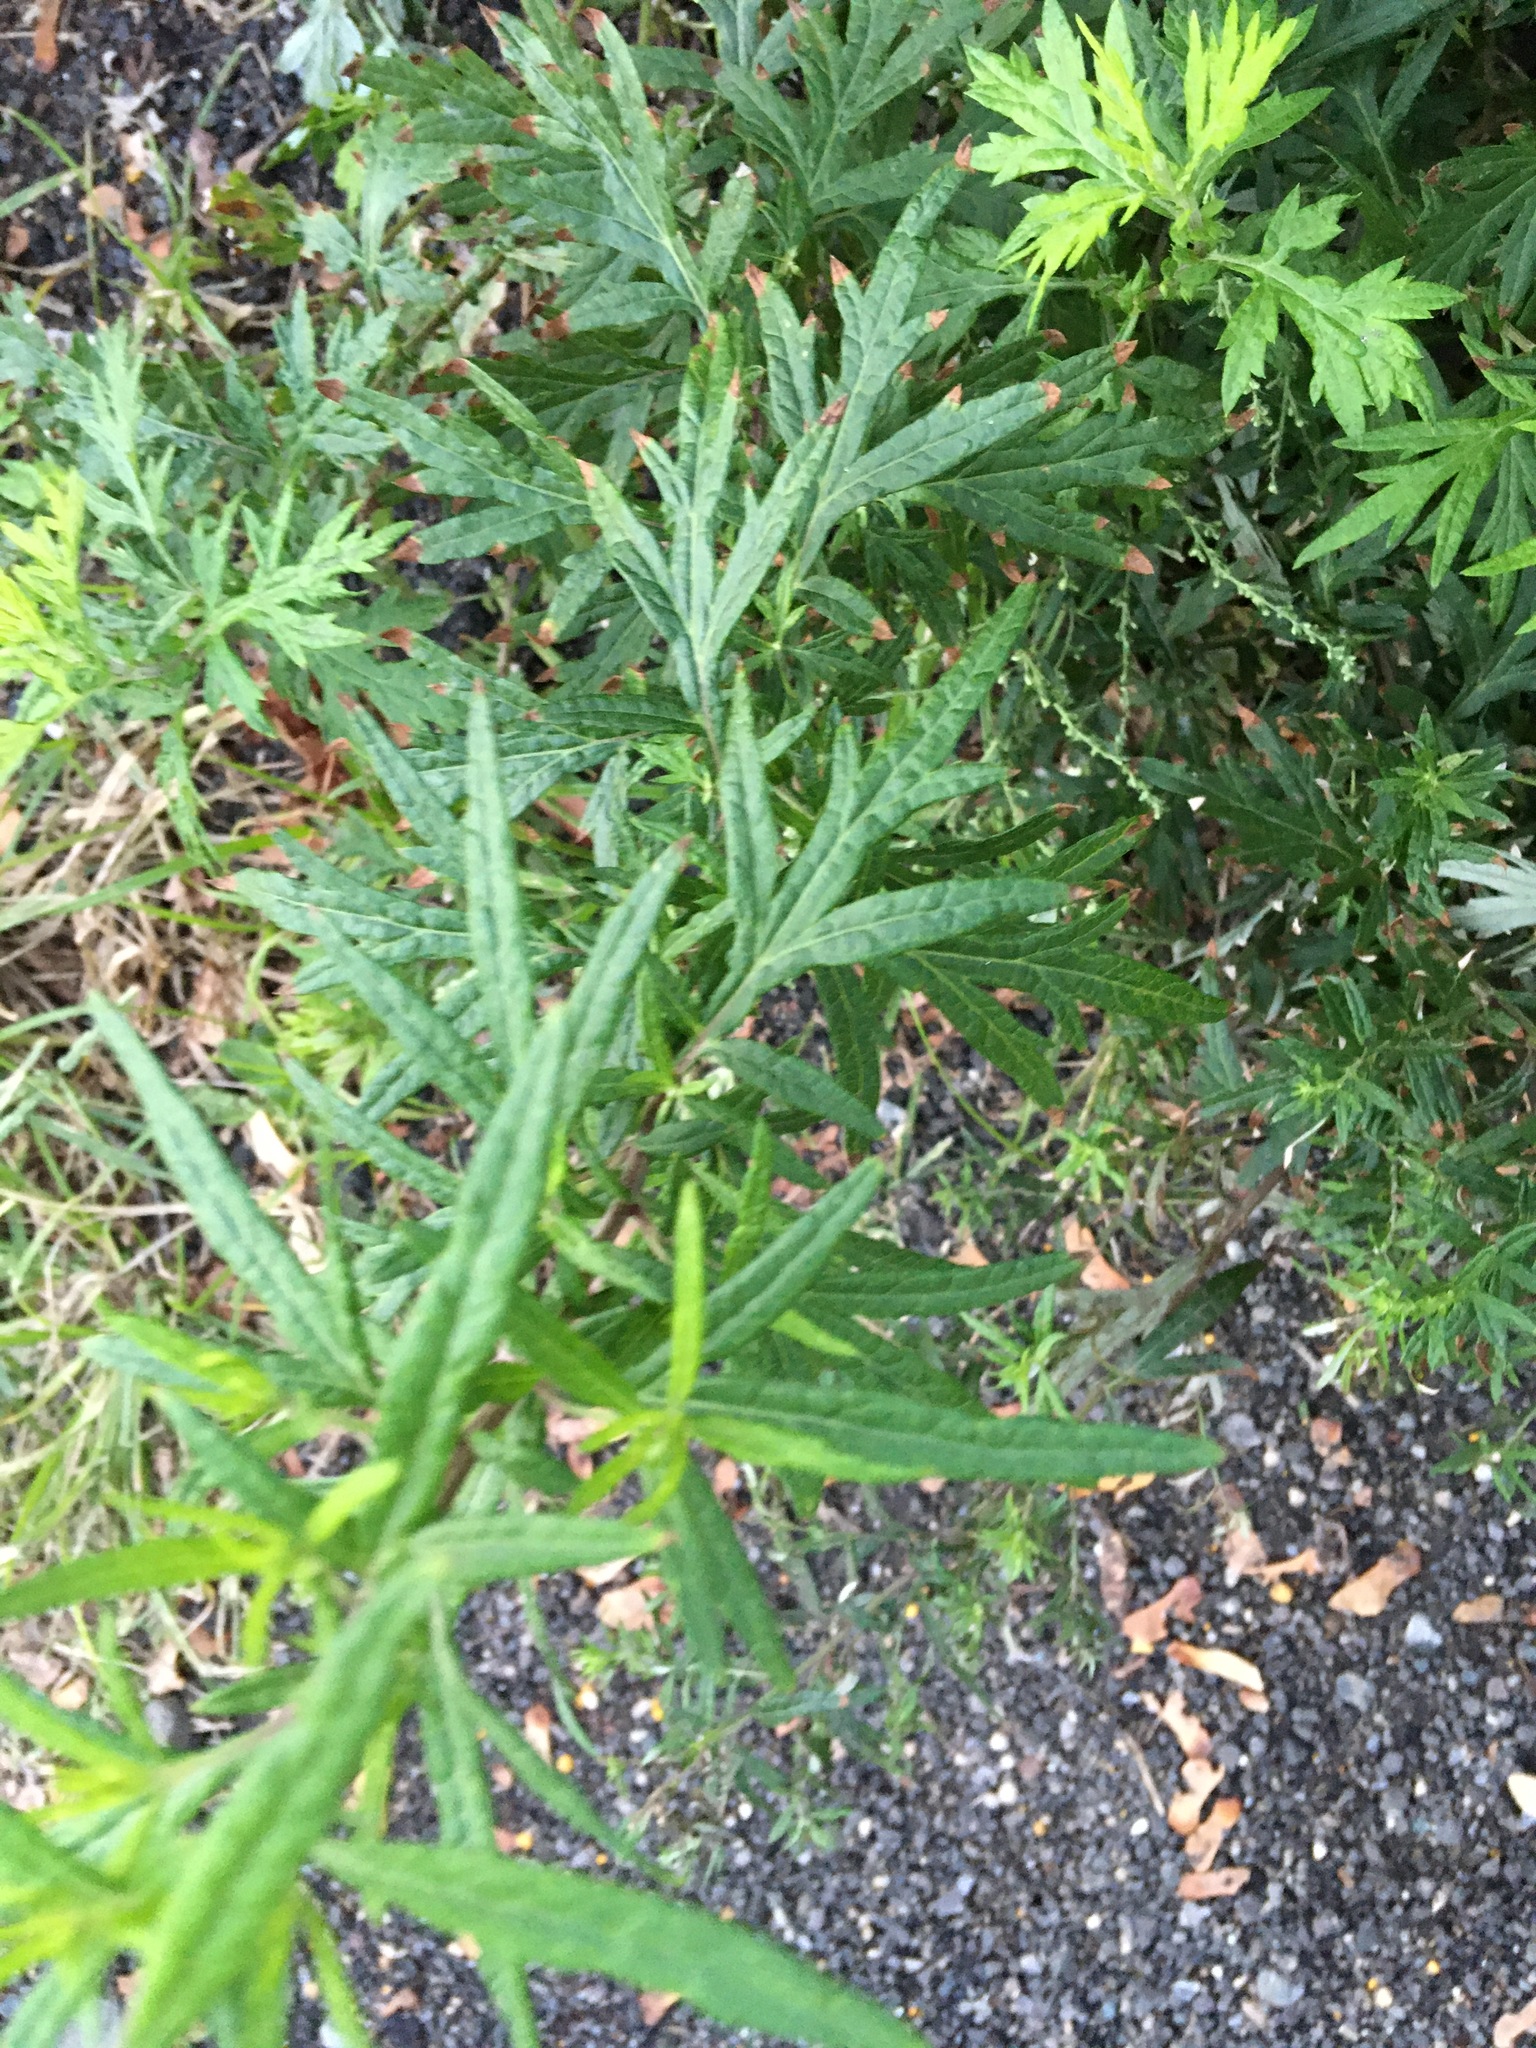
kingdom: Plantae
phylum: Tracheophyta
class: Magnoliopsida
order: Asterales
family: Asteraceae
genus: Artemisia
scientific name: Artemisia vulgaris
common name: Mugwort
